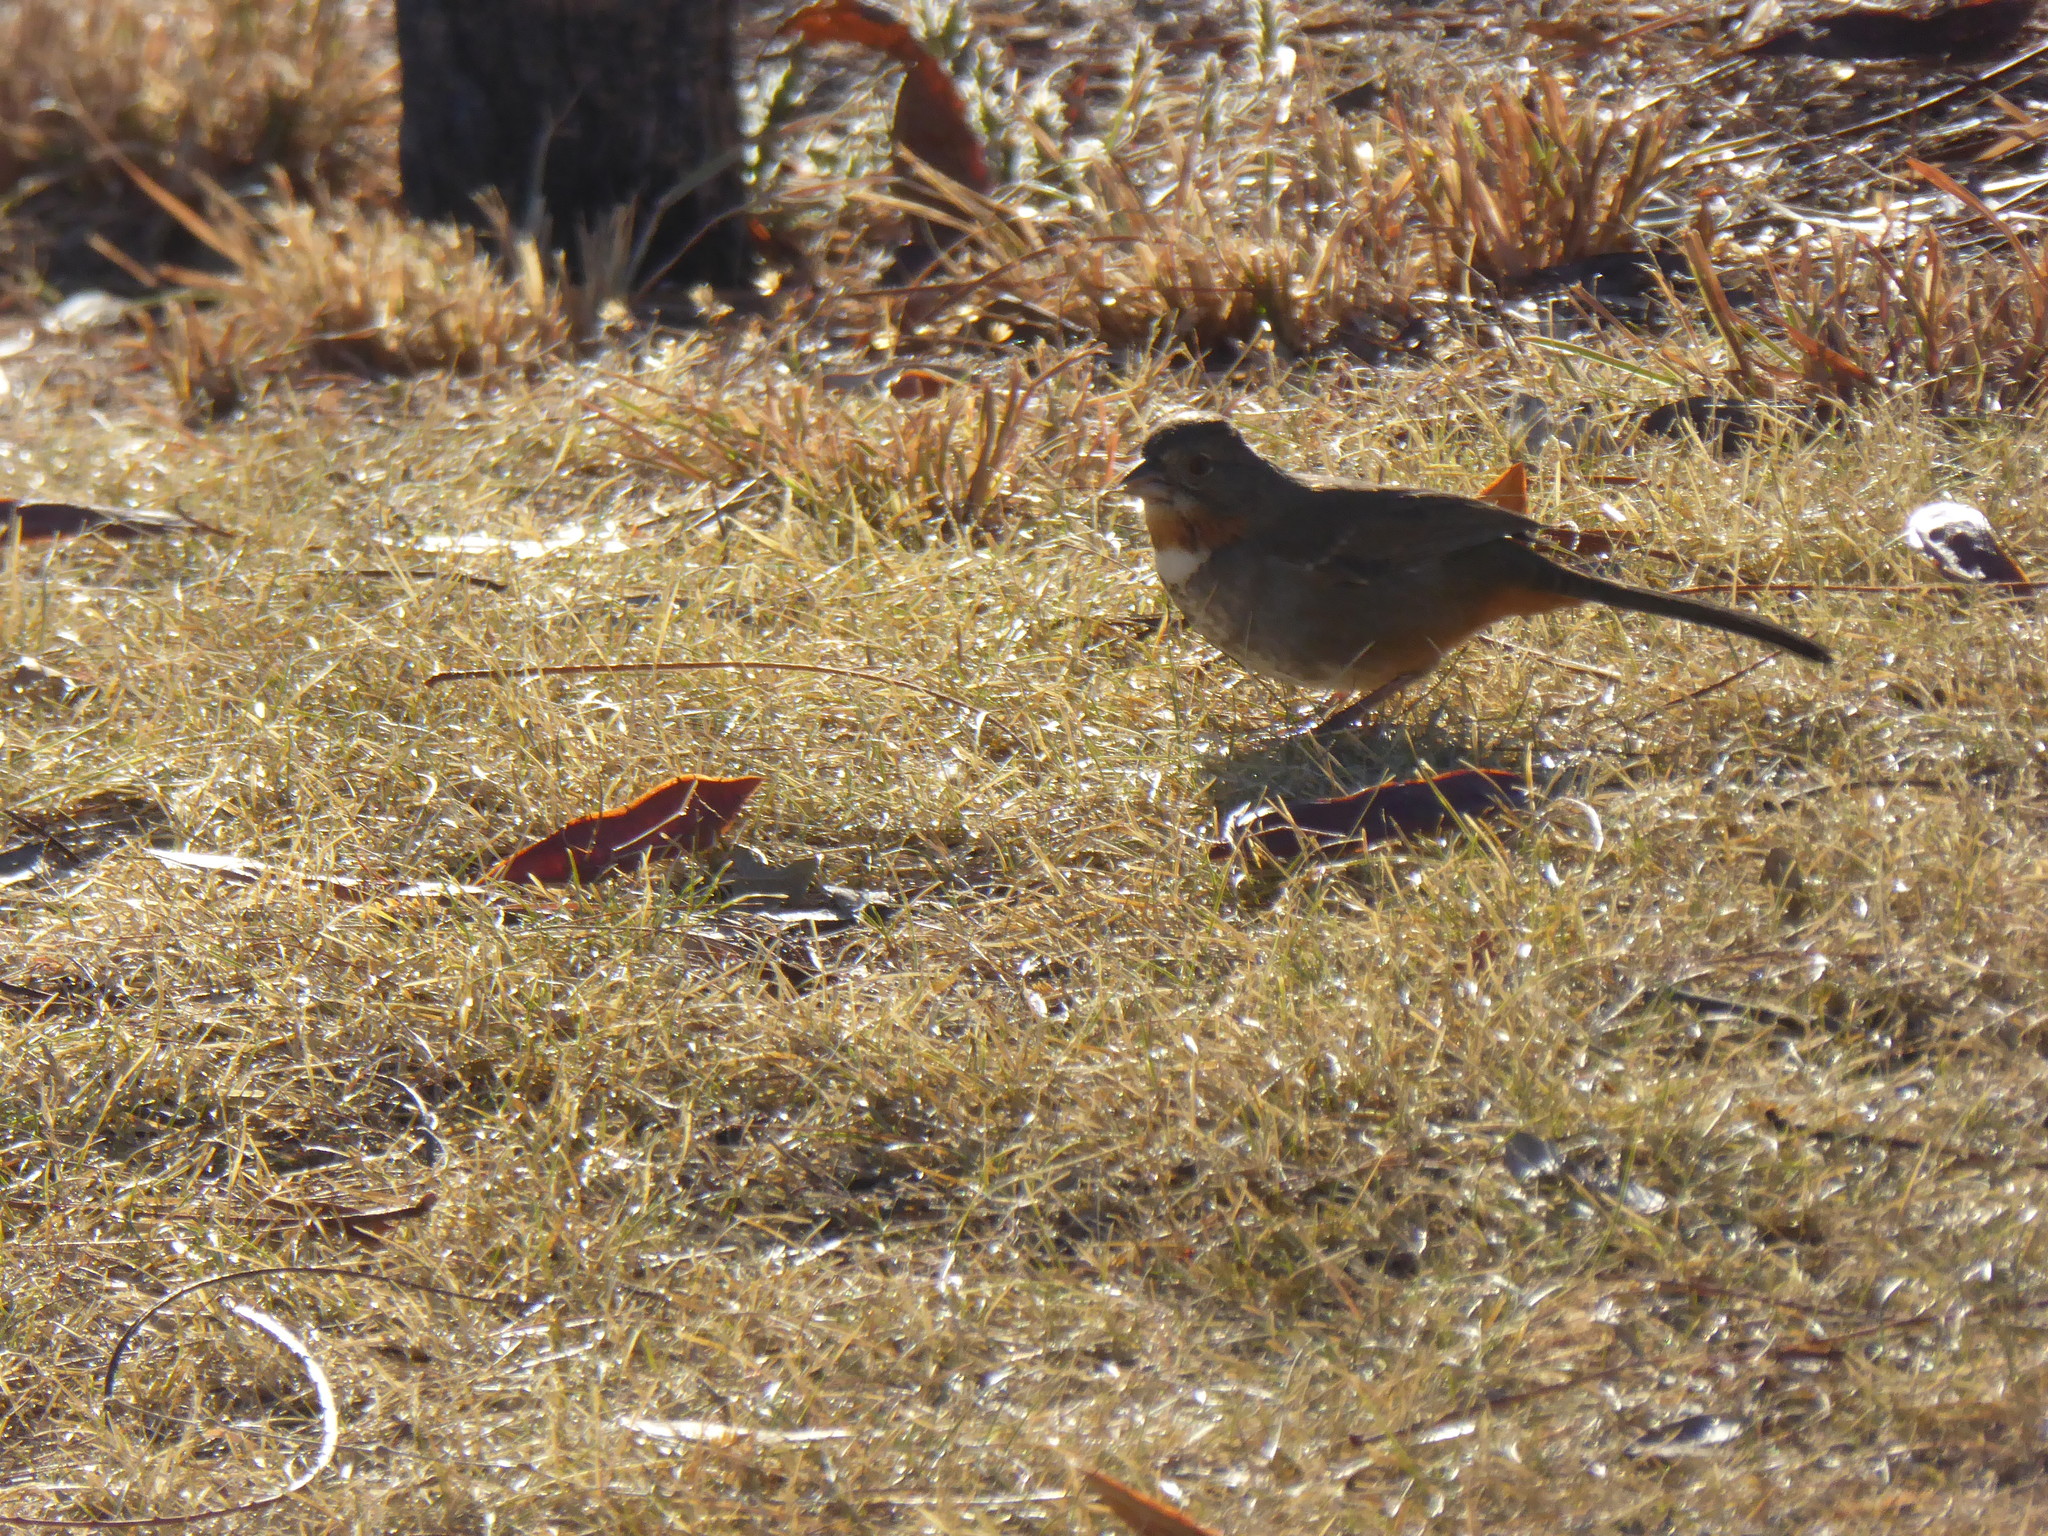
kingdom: Animalia
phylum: Chordata
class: Aves
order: Passeriformes
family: Passerellidae
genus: Melozone
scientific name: Melozone albicollis
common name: White-throated towhee
